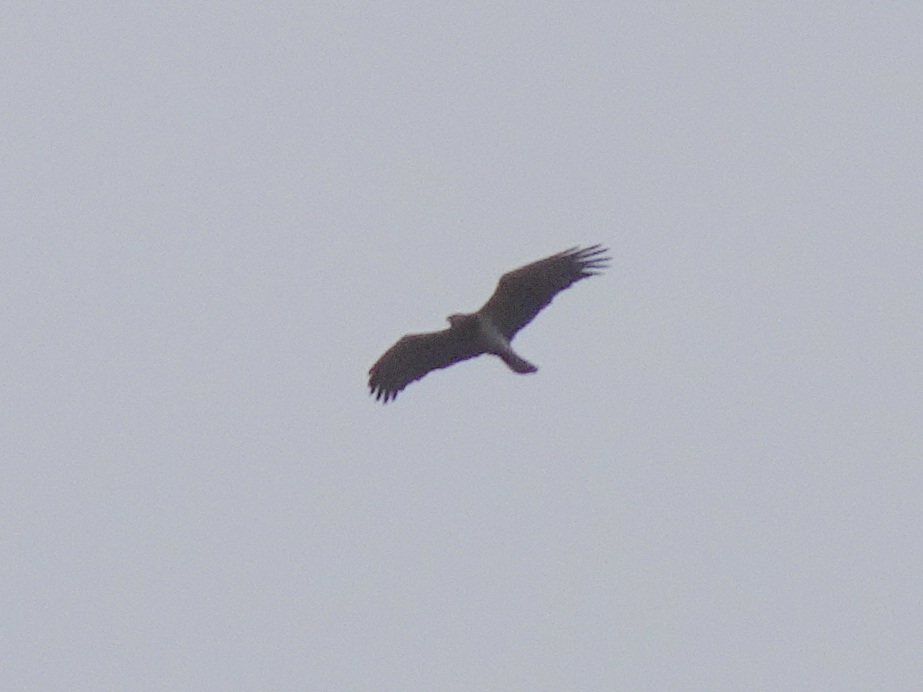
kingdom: Animalia
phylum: Chordata
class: Aves
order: Accipitriformes
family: Accipitridae
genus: Circaetus
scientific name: Circaetus gallicus
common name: Short-toed snake eagle
